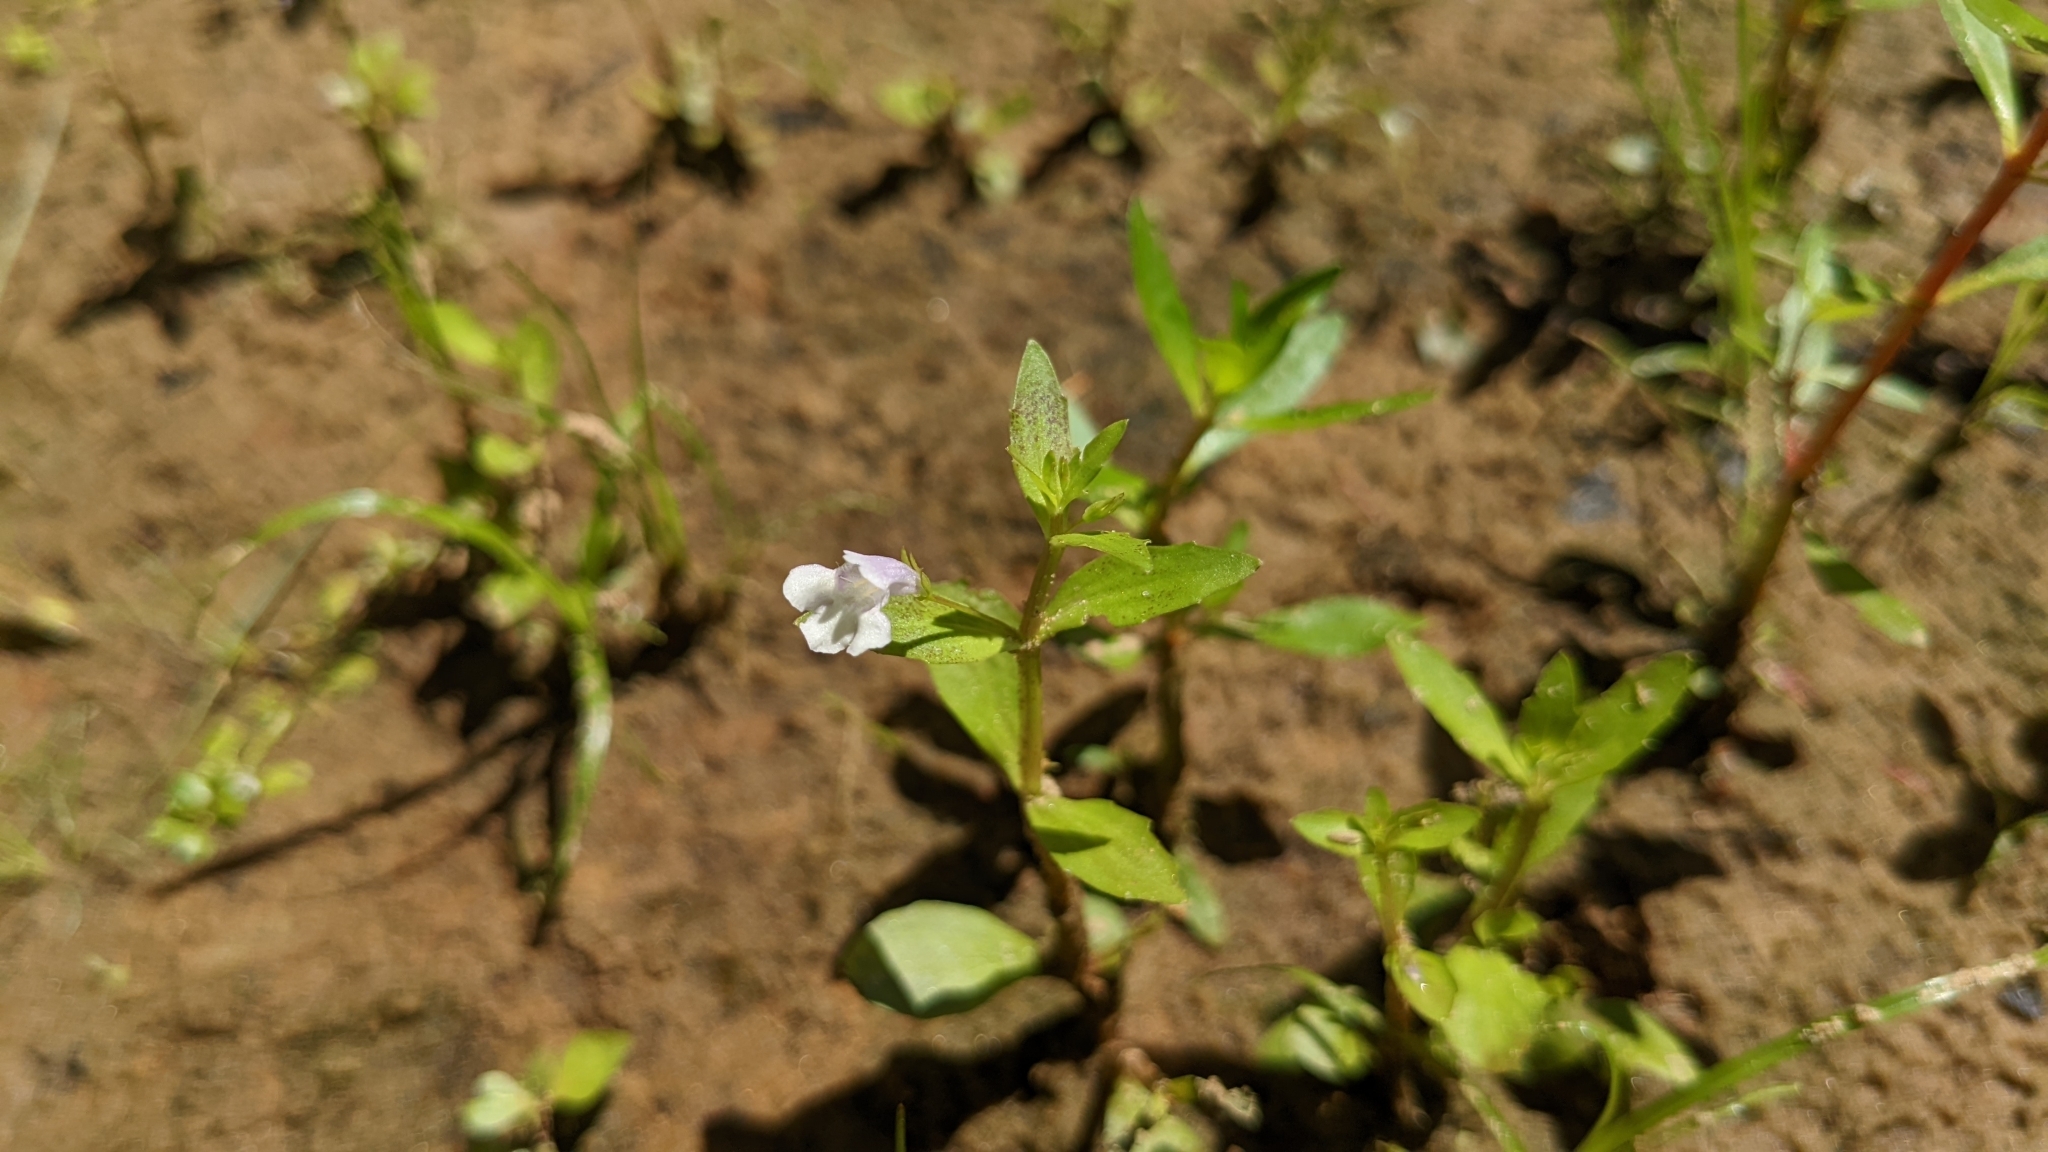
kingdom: Plantae
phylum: Tracheophyta
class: Magnoliopsida
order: Lamiales
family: Linderniaceae
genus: Lindernia
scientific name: Lindernia dubia
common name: Annual false pimpernel
